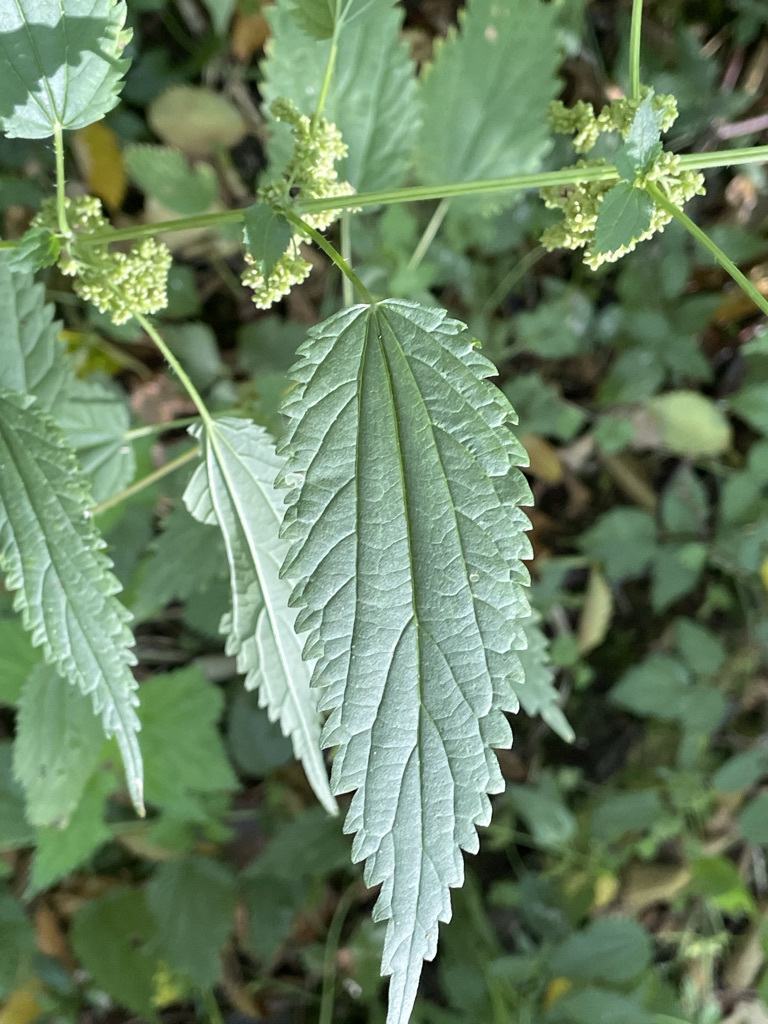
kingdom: Plantae
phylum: Tracheophyta
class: Magnoliopsida
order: Rosales
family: Urticaceae
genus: Urtica
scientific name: Urtica dioica
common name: Common nettle
